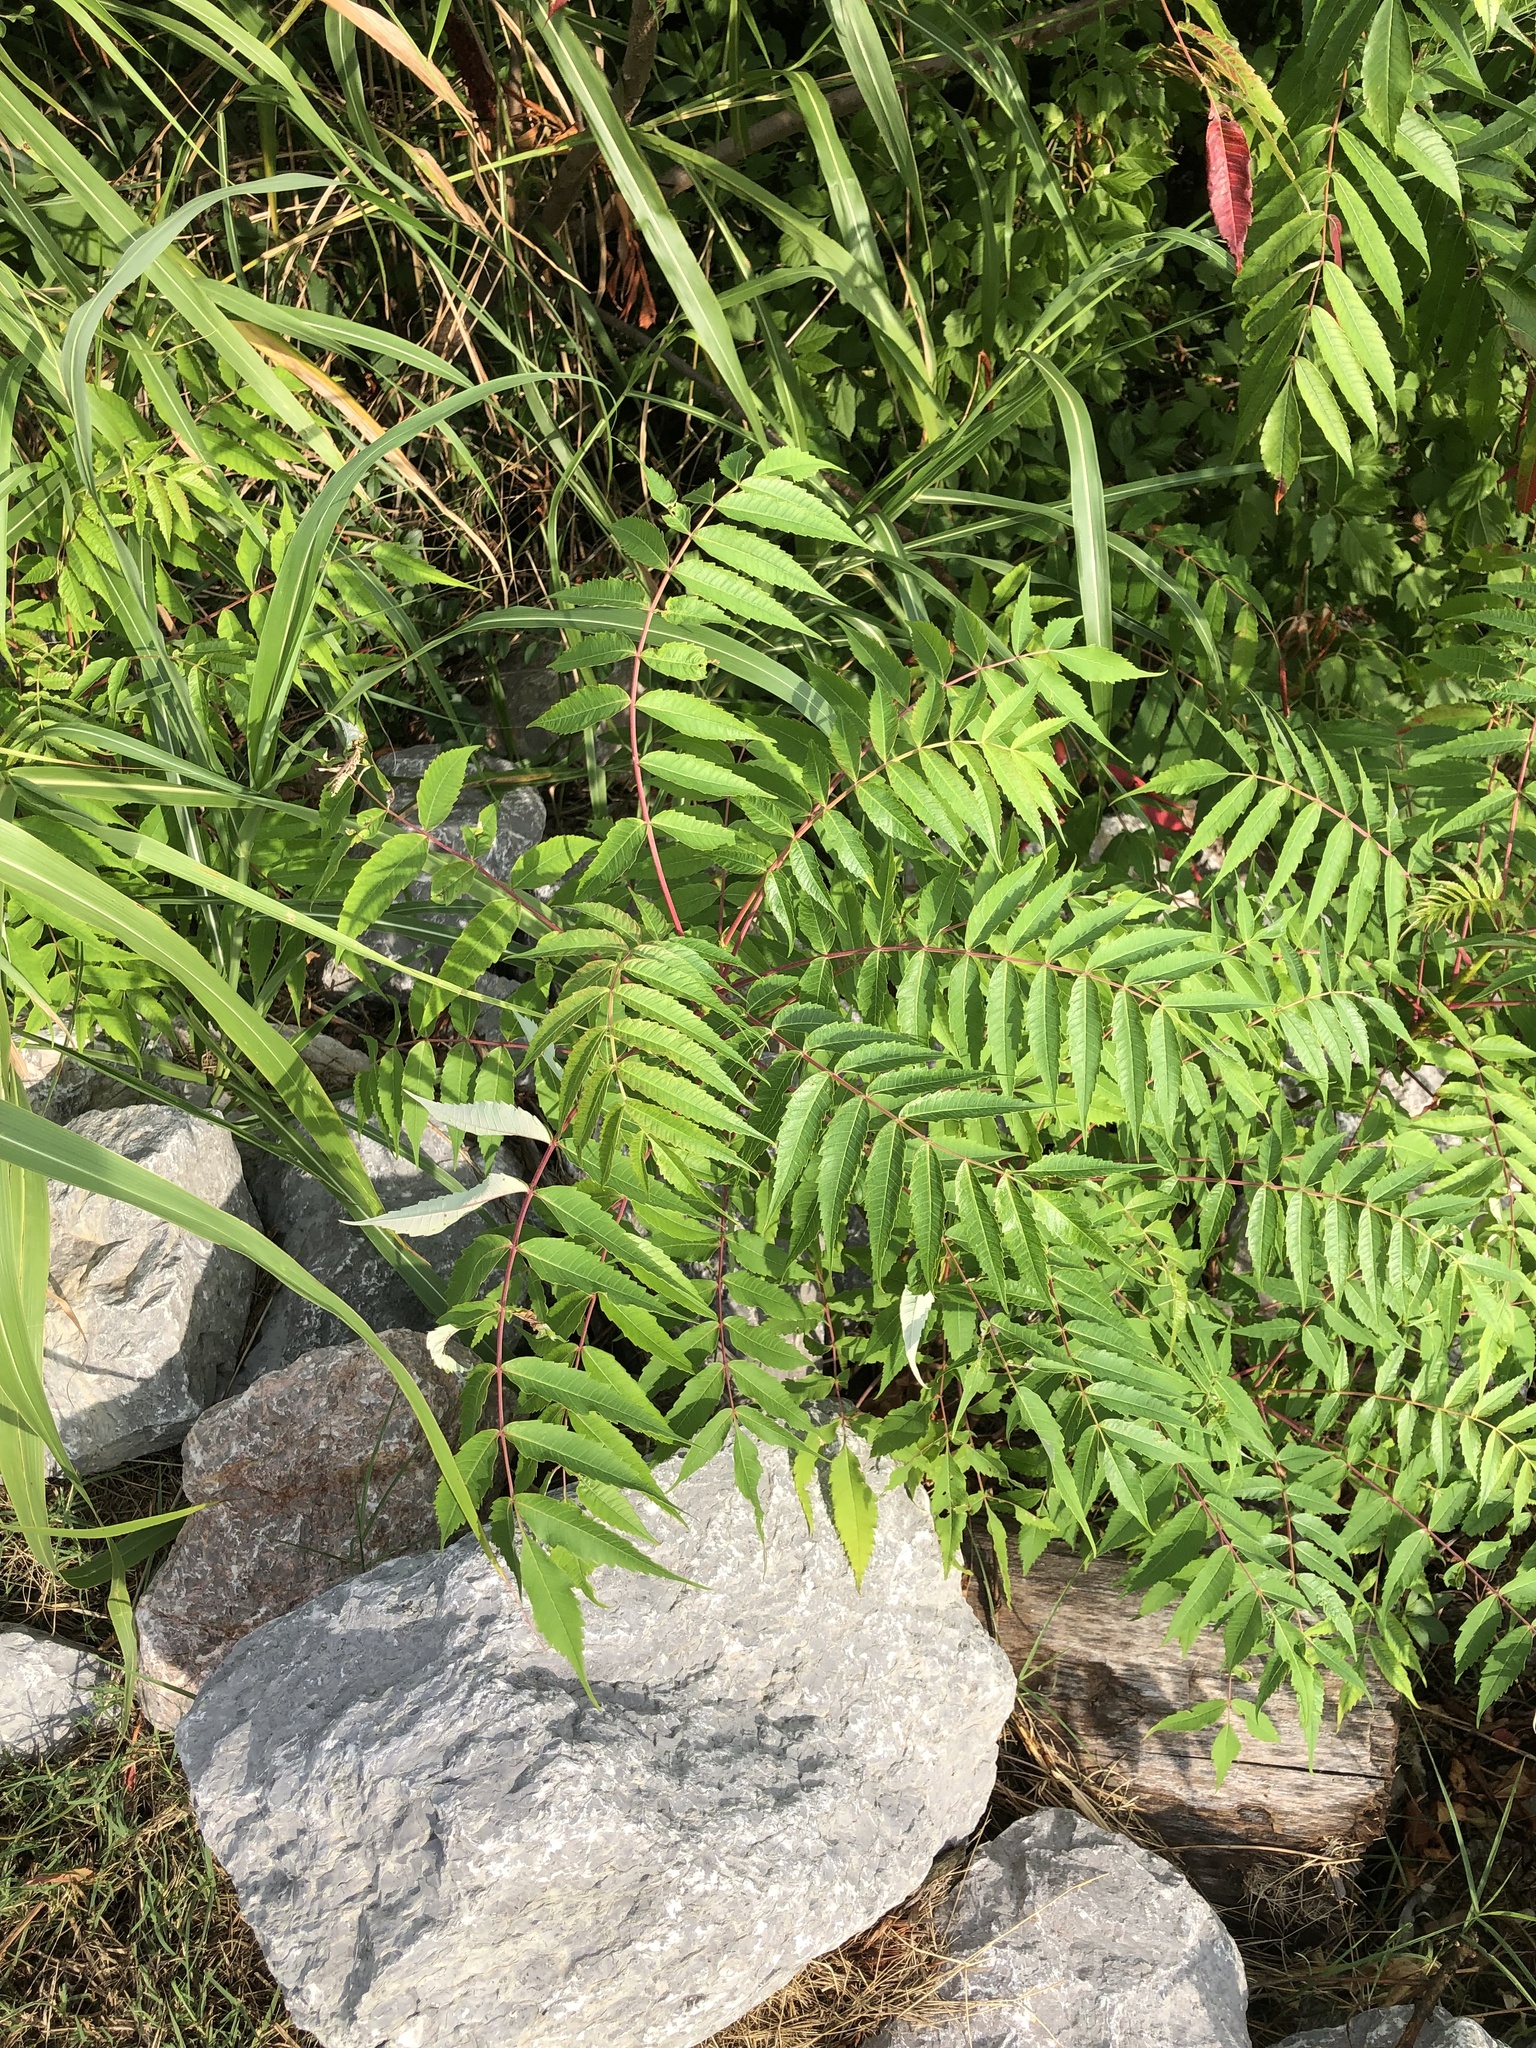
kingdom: Plantae
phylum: Tracheophyta
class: Magnoliopsida
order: Sapindales
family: Anacardiaceae
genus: Rhus
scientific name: Rhus glabra
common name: Scarlet sumac
